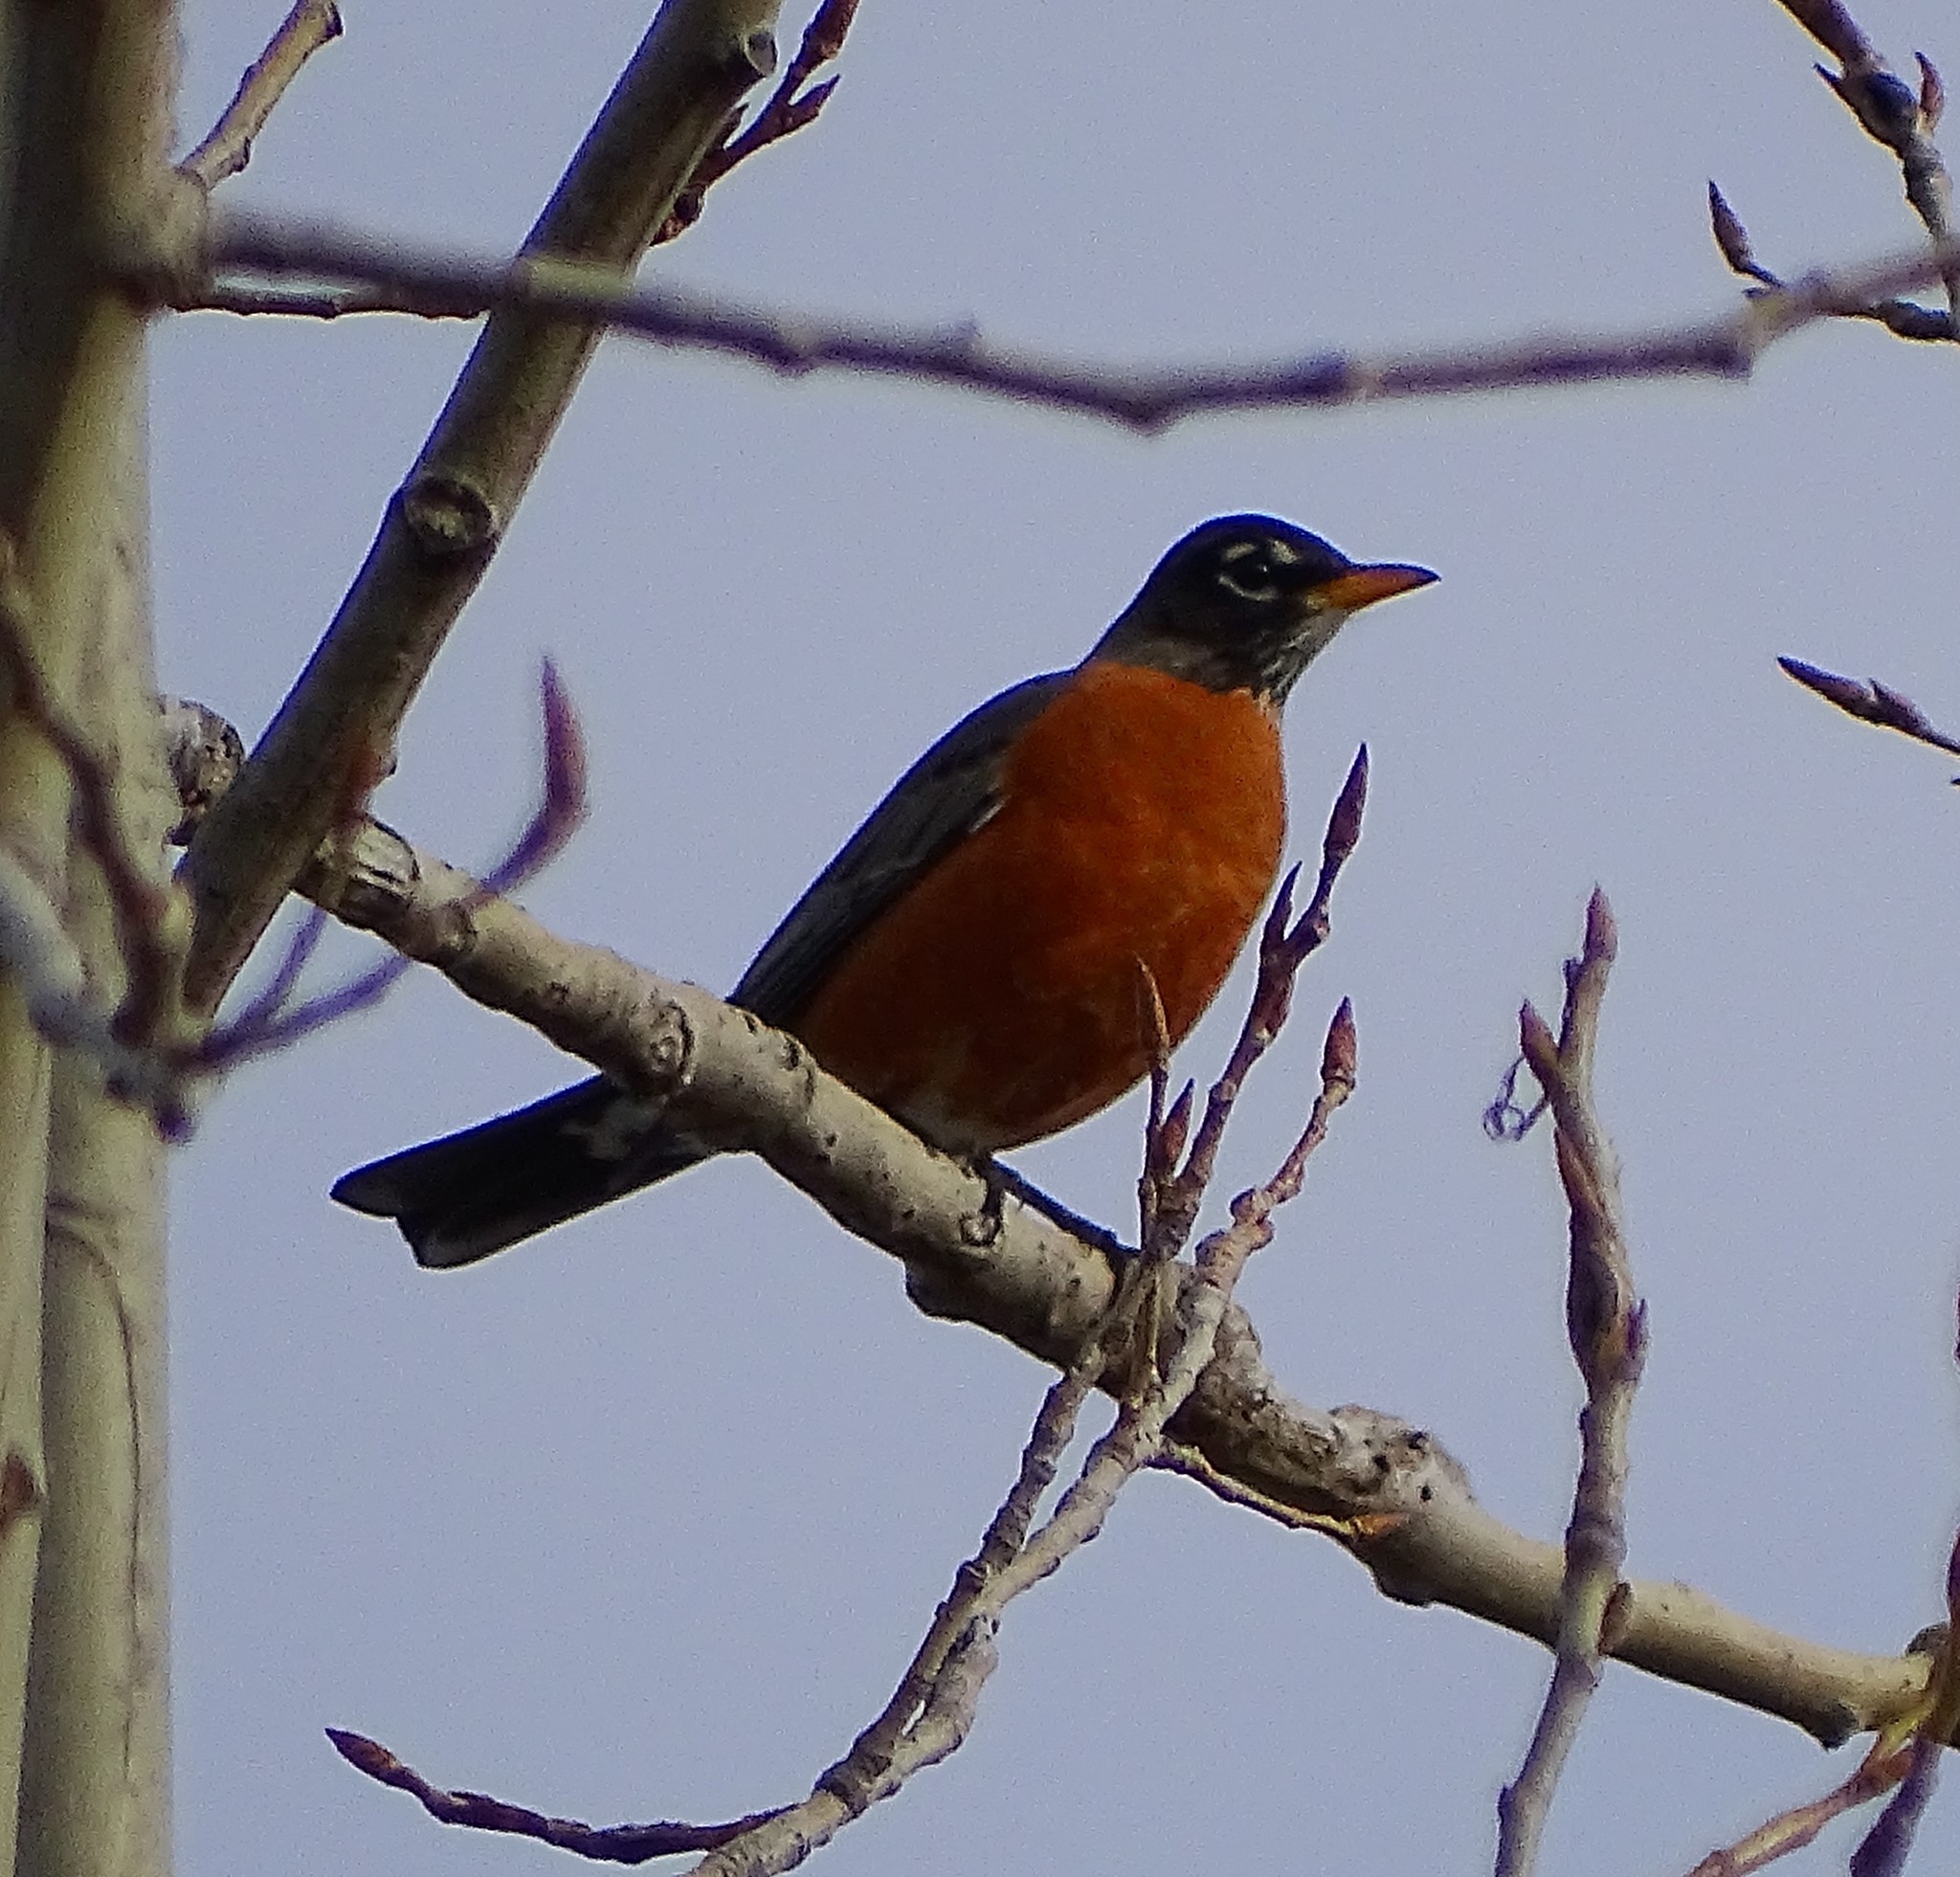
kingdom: Animalia
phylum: Chordata
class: Aves
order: Passeriformes
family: Turdidae
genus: Turdus
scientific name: Turdus migratorius
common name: American robin
